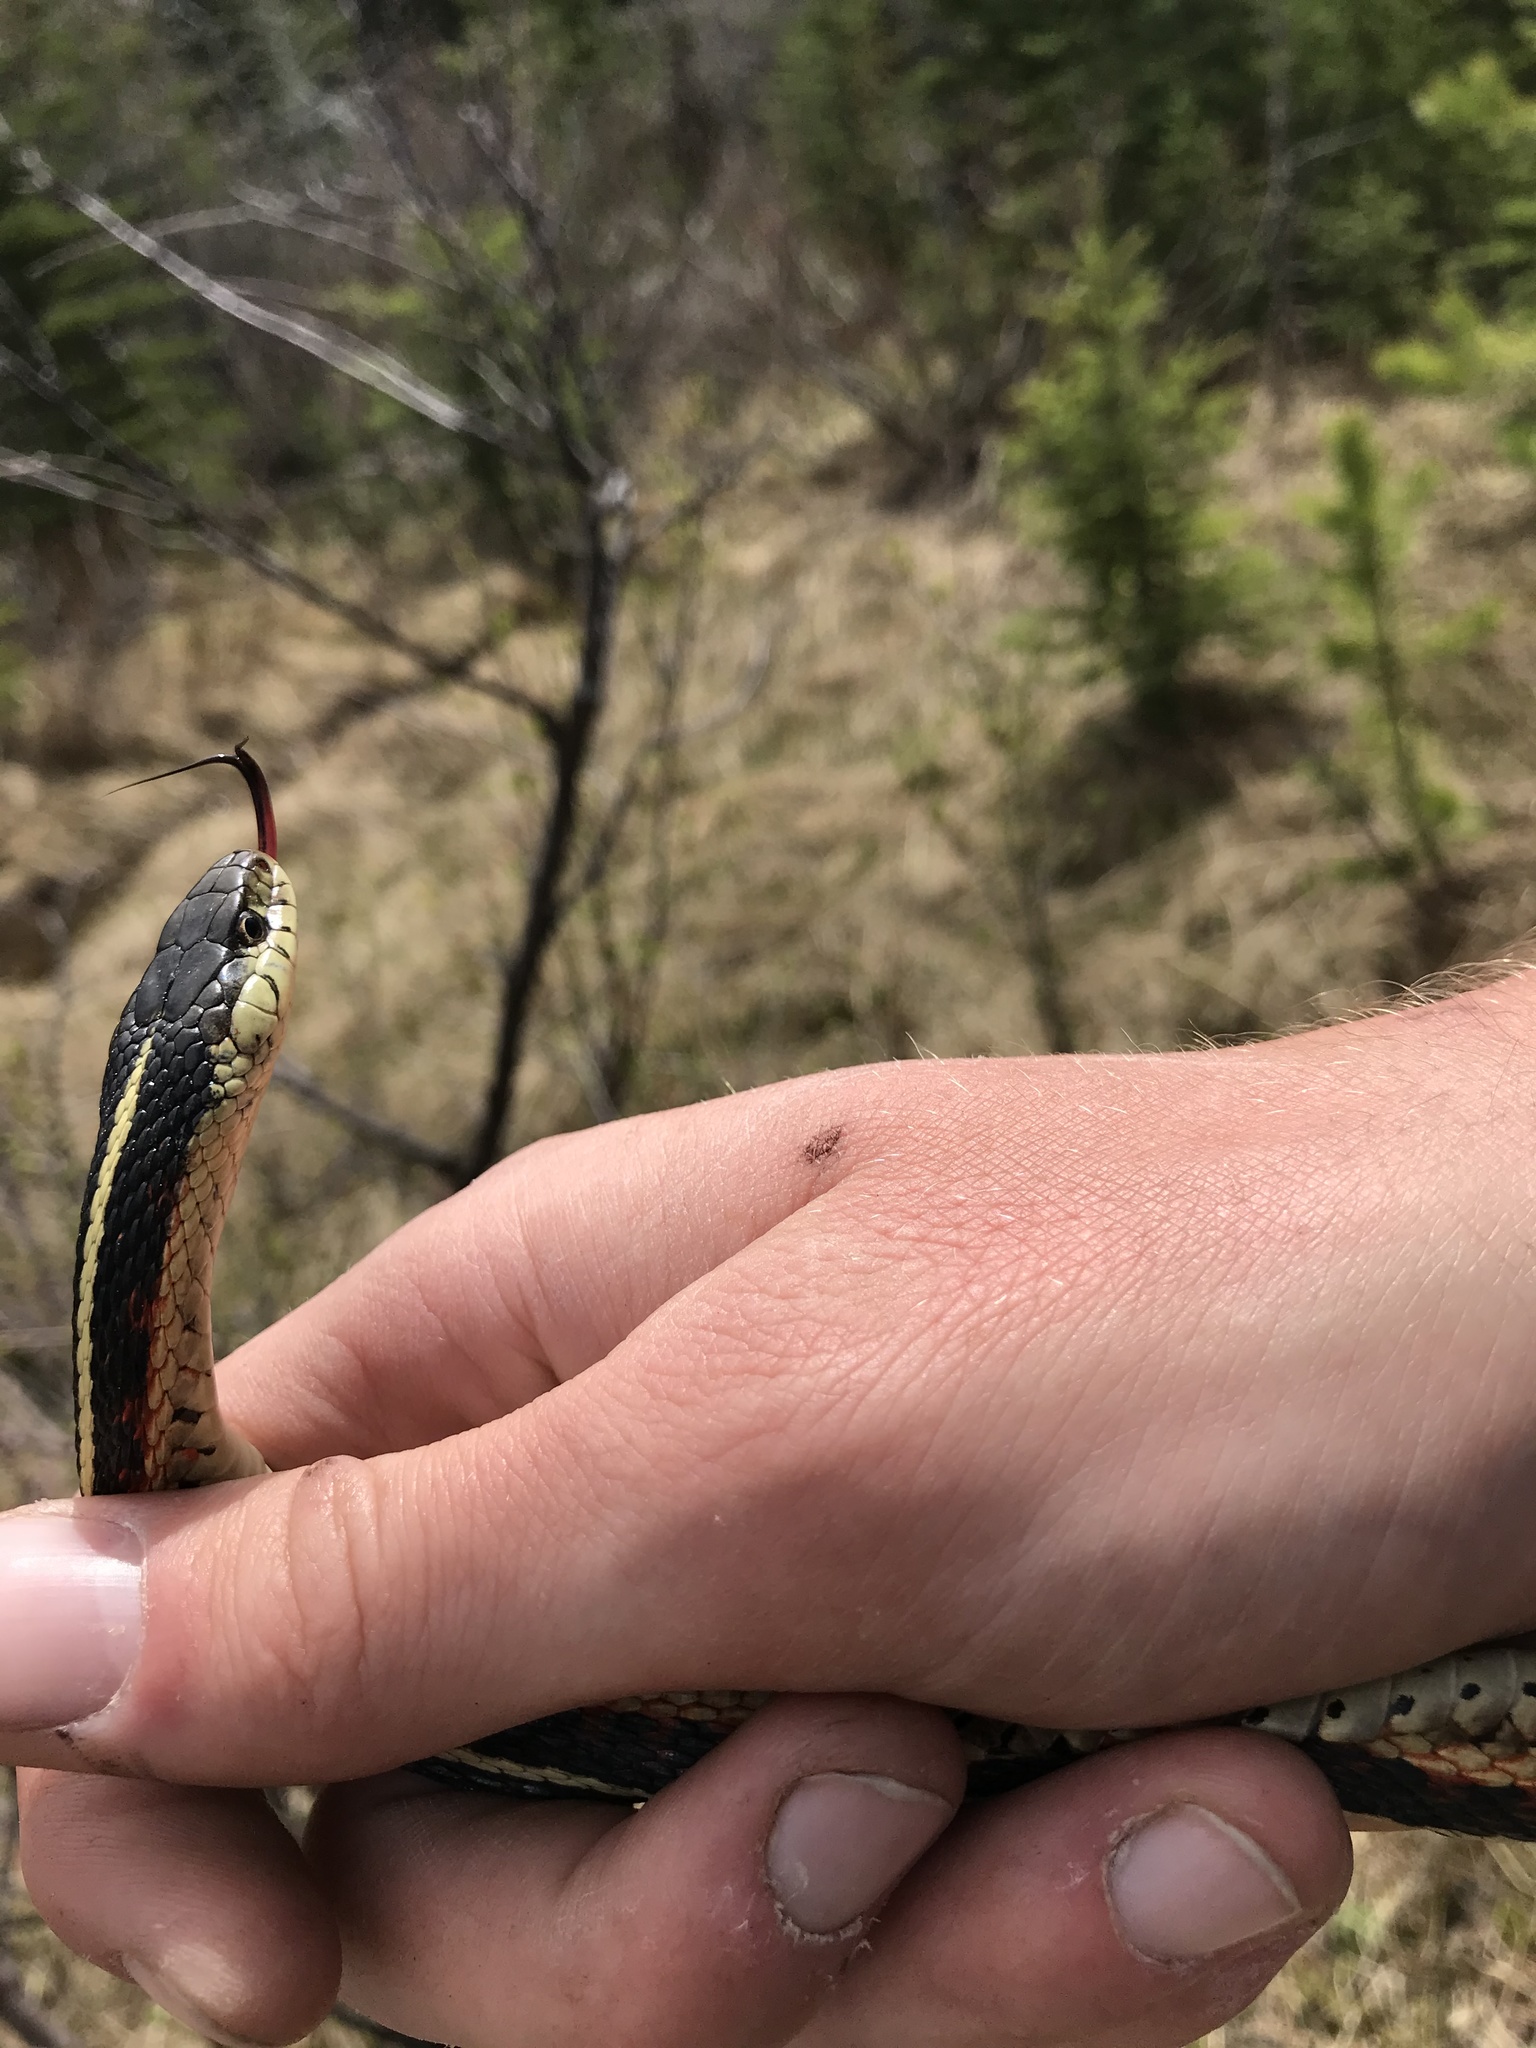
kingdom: Animalia
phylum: Chordata
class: Squamata
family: Colubridae
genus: Thamnophis
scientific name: Thamnophis sirtalis
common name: Common garter snake
